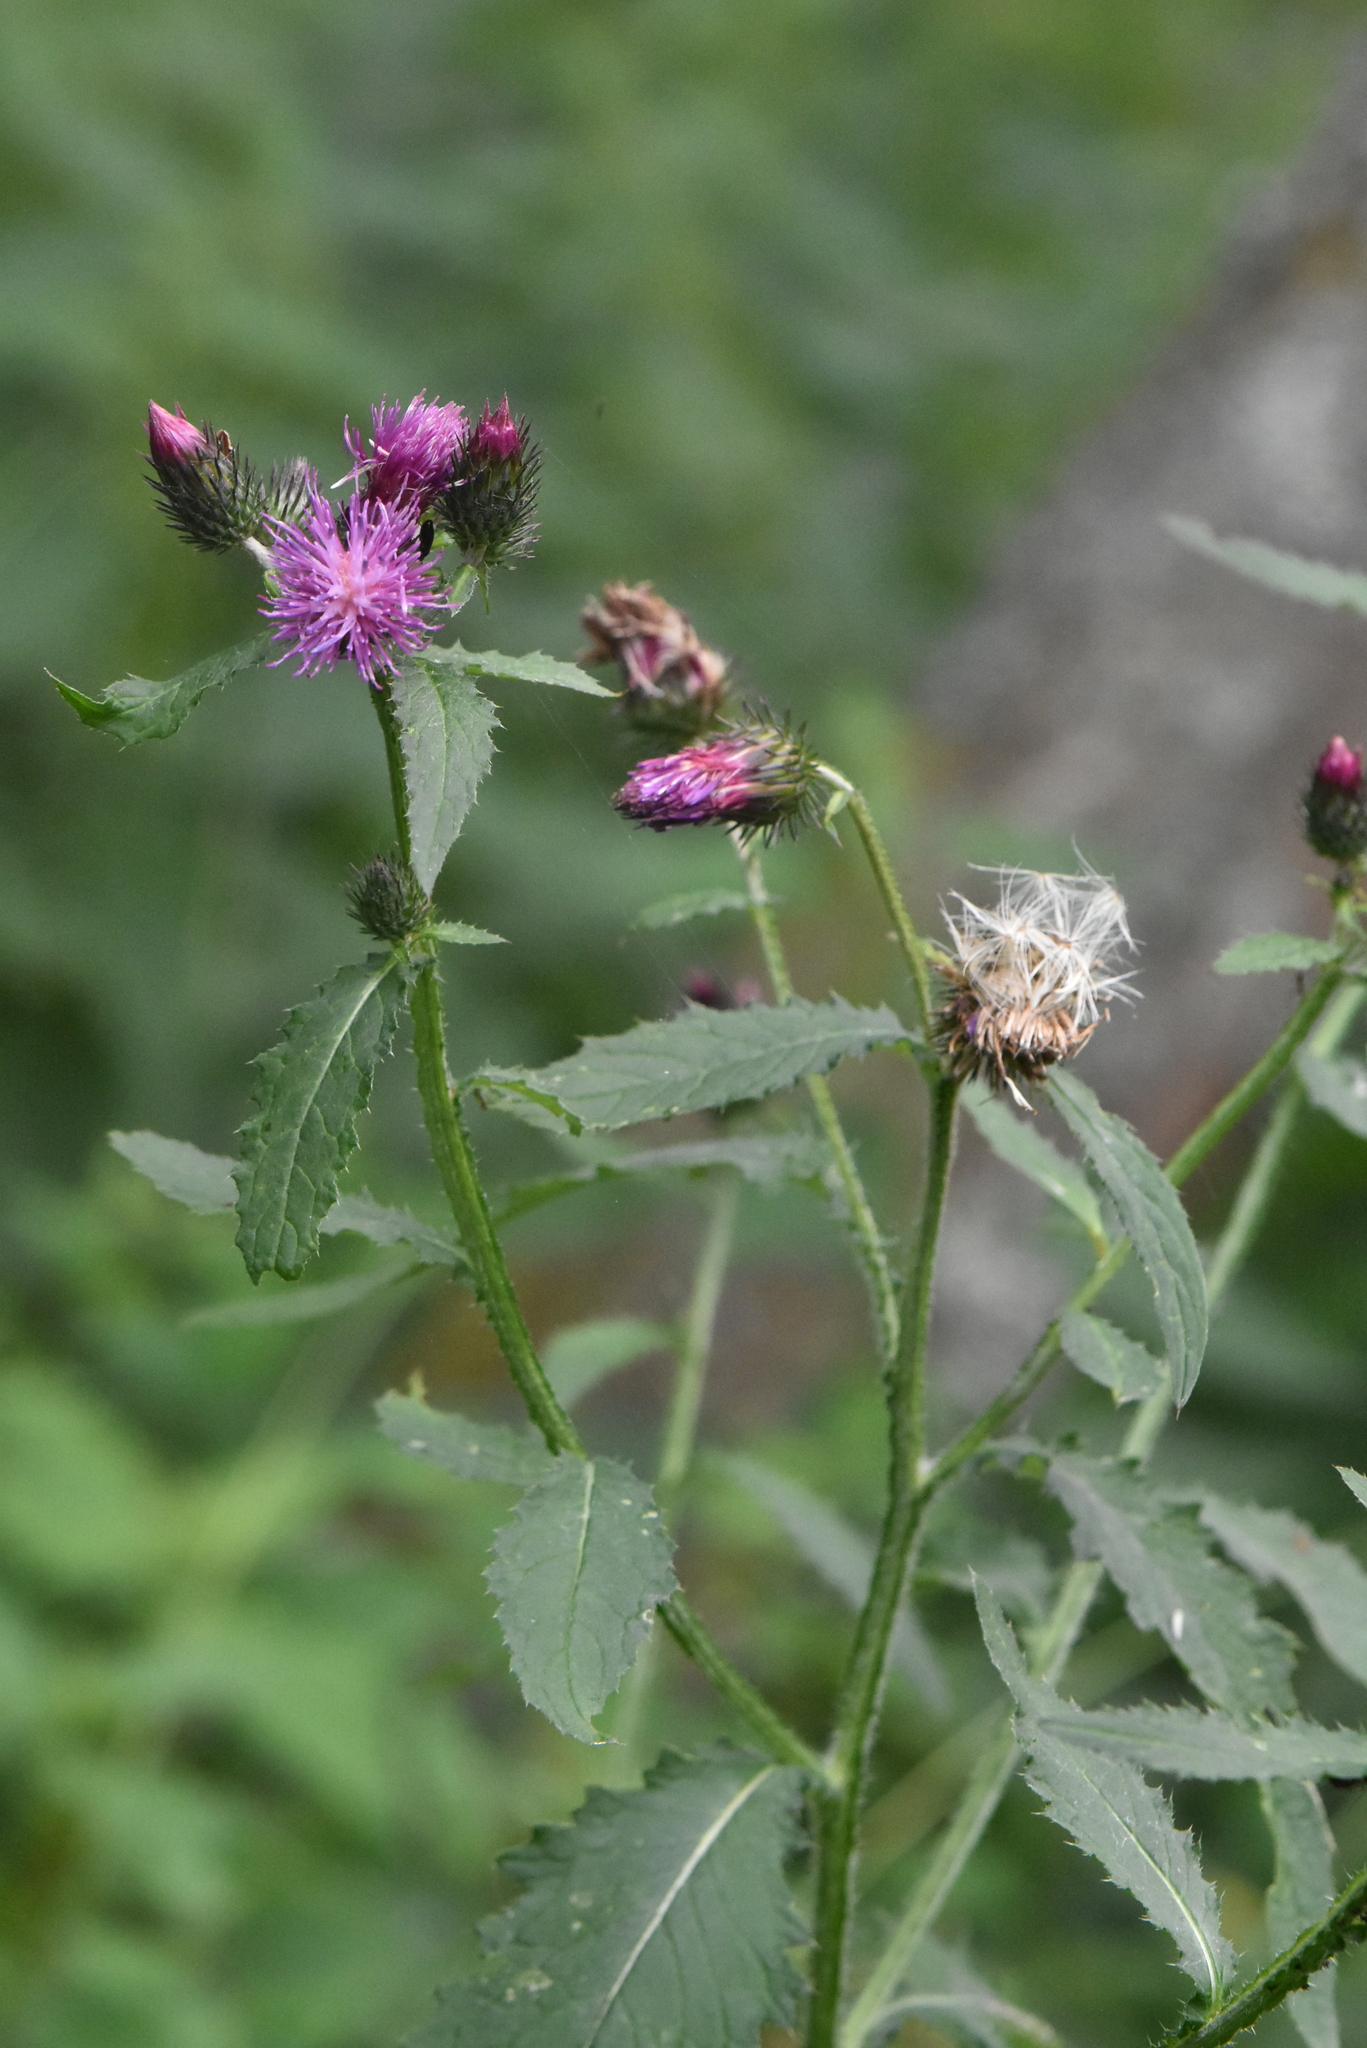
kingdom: Plantae
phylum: Tracheophyta
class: Magnoliopsida
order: Asterales
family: Asteraceae
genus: Carduus
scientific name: Carduus crispus
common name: Welted thistle
